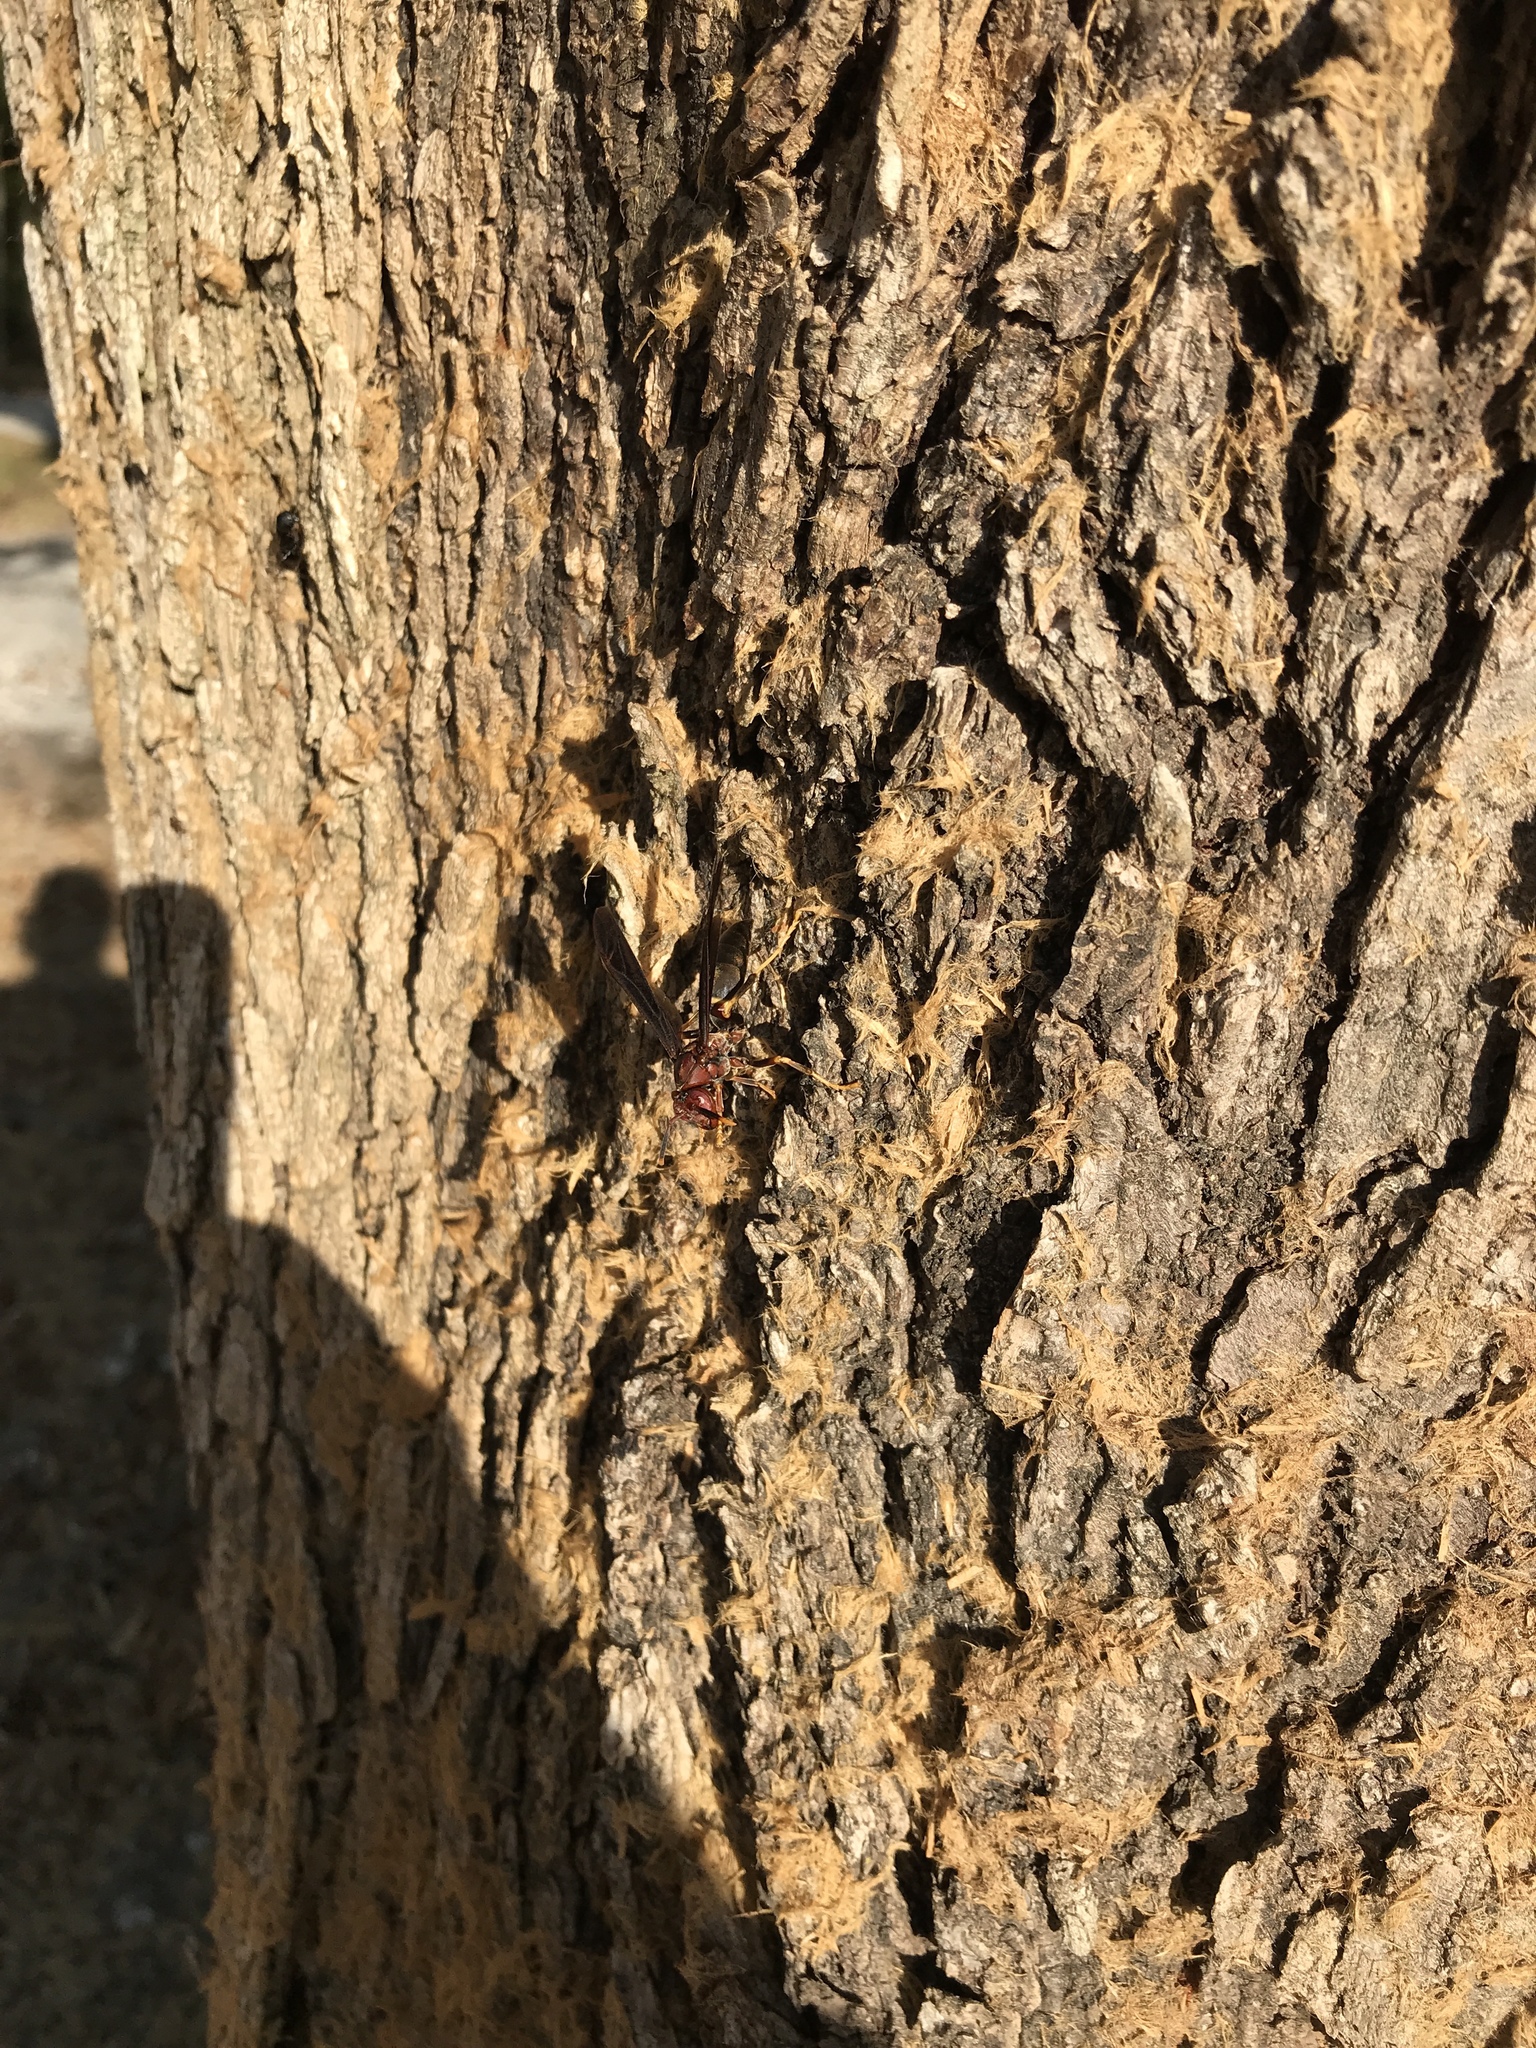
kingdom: Animalia
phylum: Arthropoda
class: Insecta
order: Hymenoptera
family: Eumenidae
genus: Polistes
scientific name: Polistes annularis
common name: Ringed paper wasp
